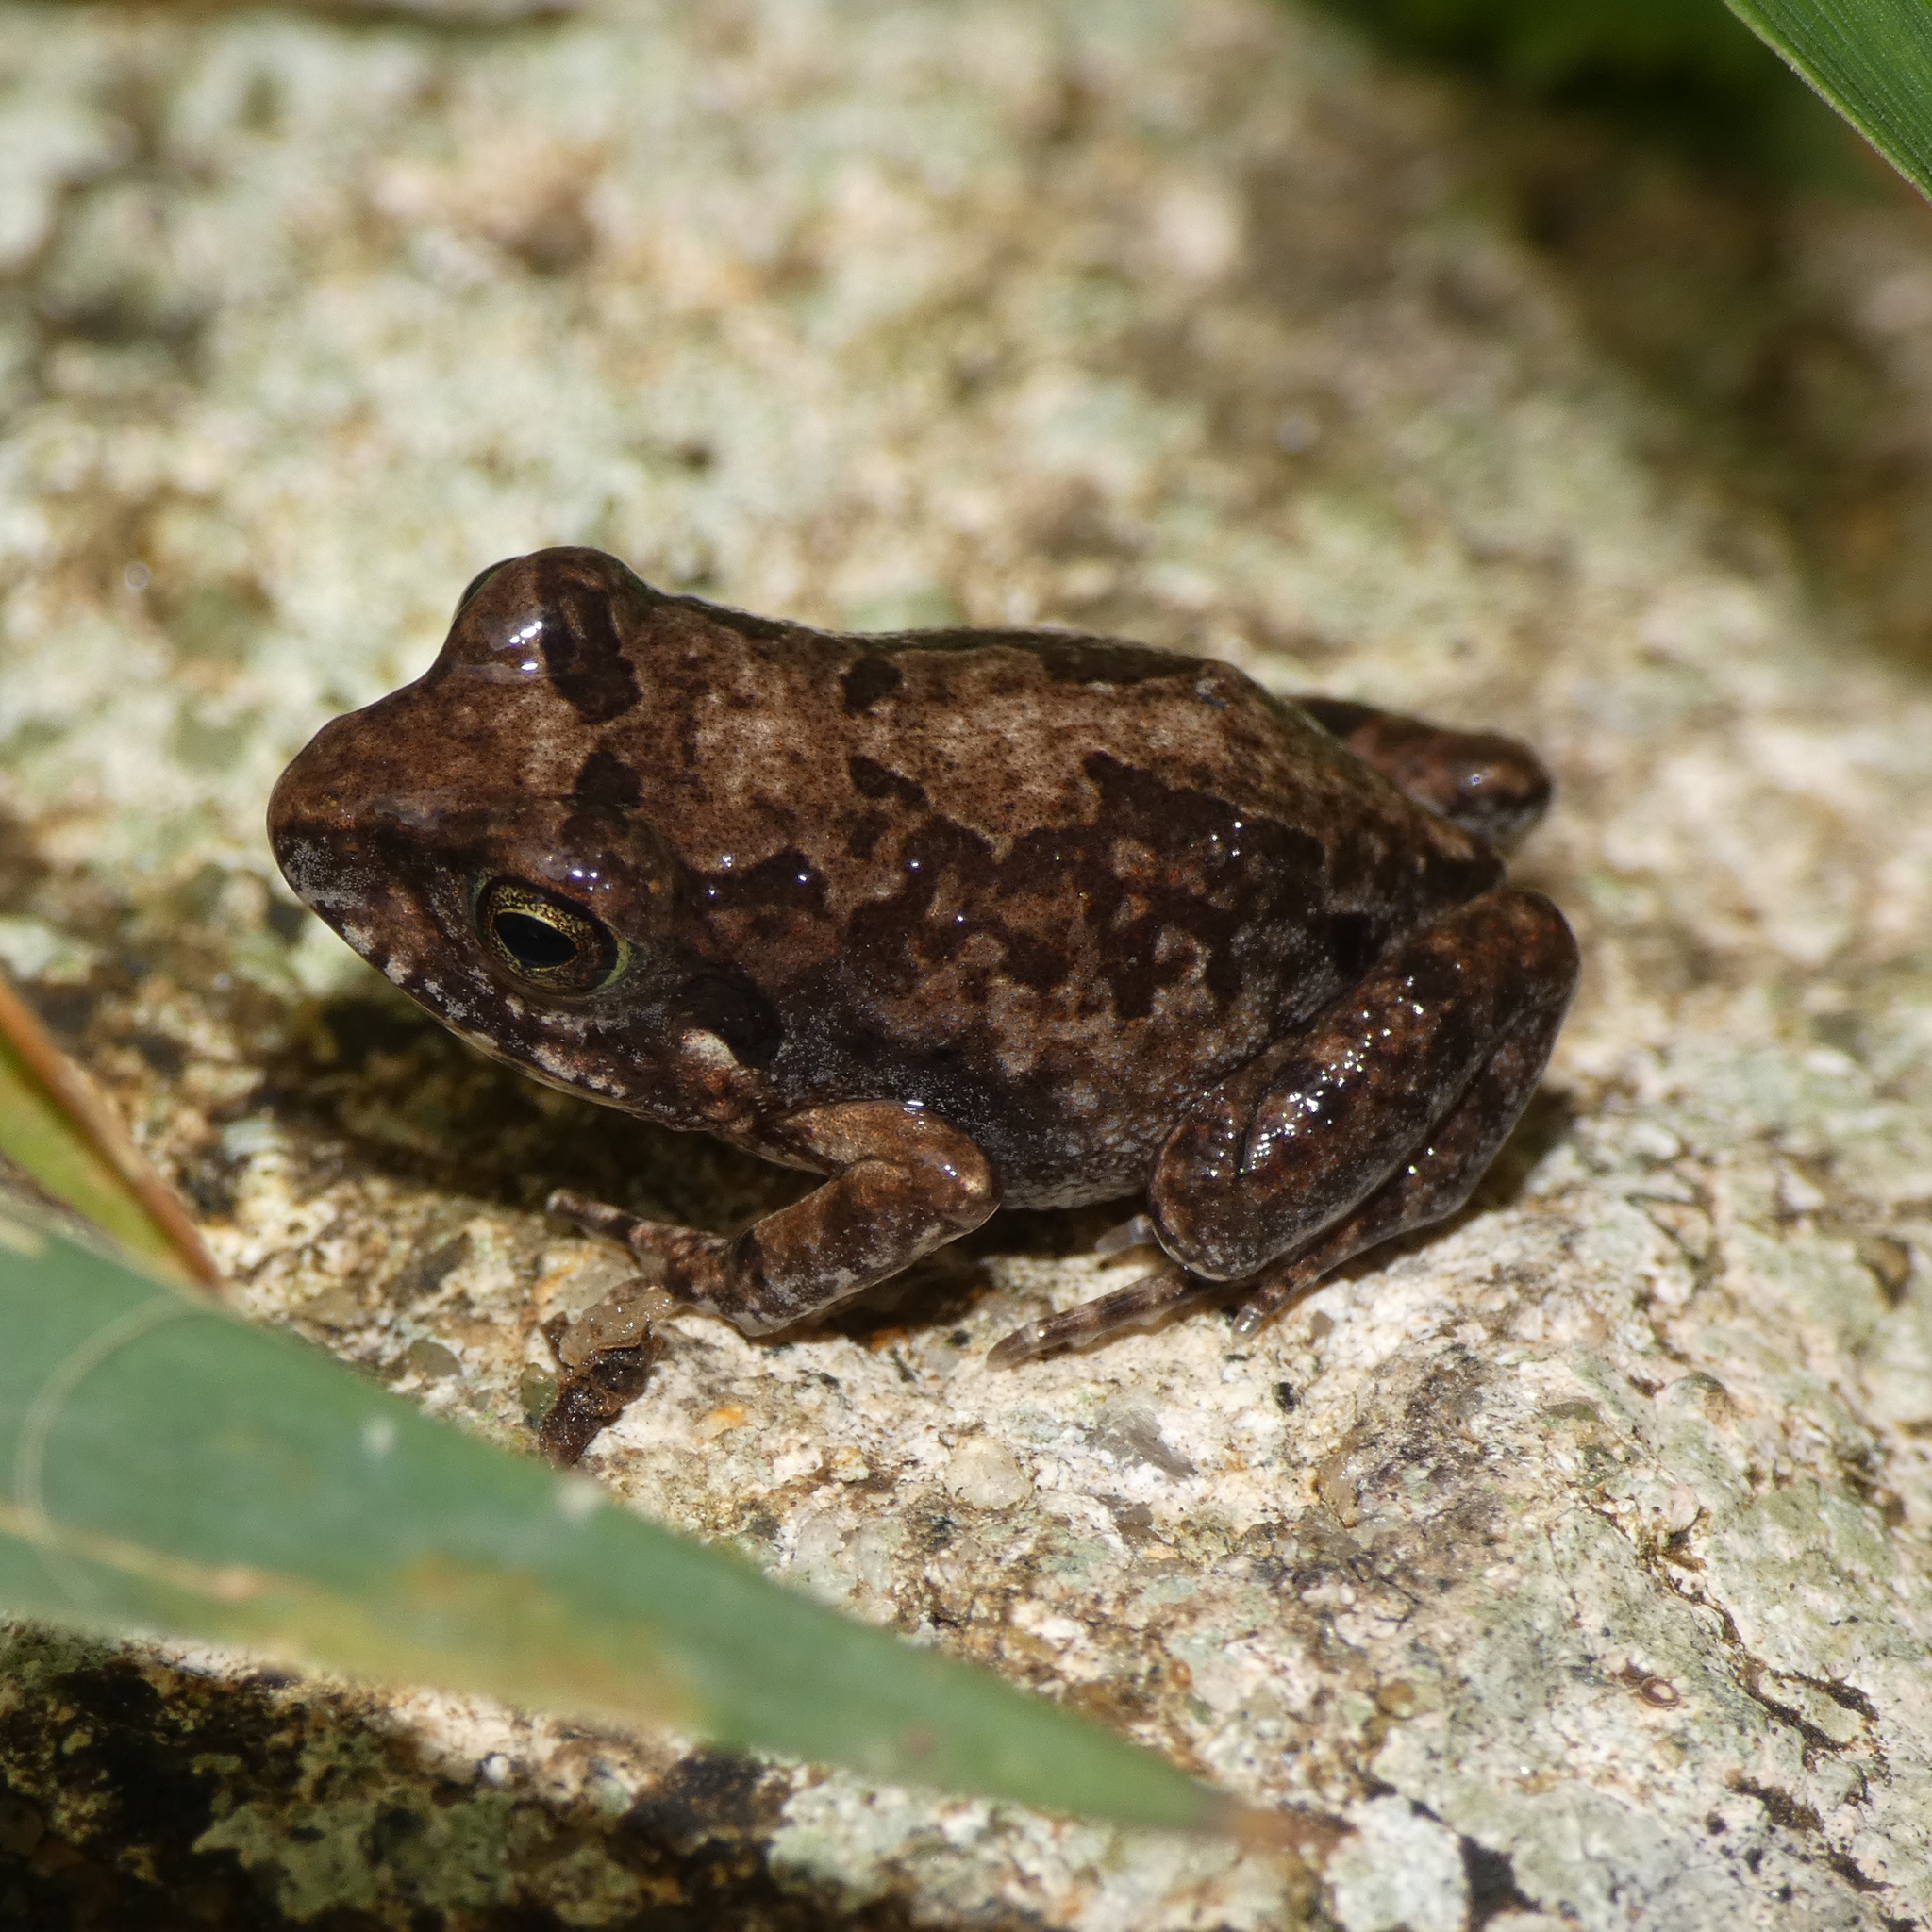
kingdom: Animalia
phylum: Chordata
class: Amphibia
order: Anura
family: Arthroleptidae
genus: Arthroleptis
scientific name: Arthroleptis stenodactylus
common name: Dune squeaker
